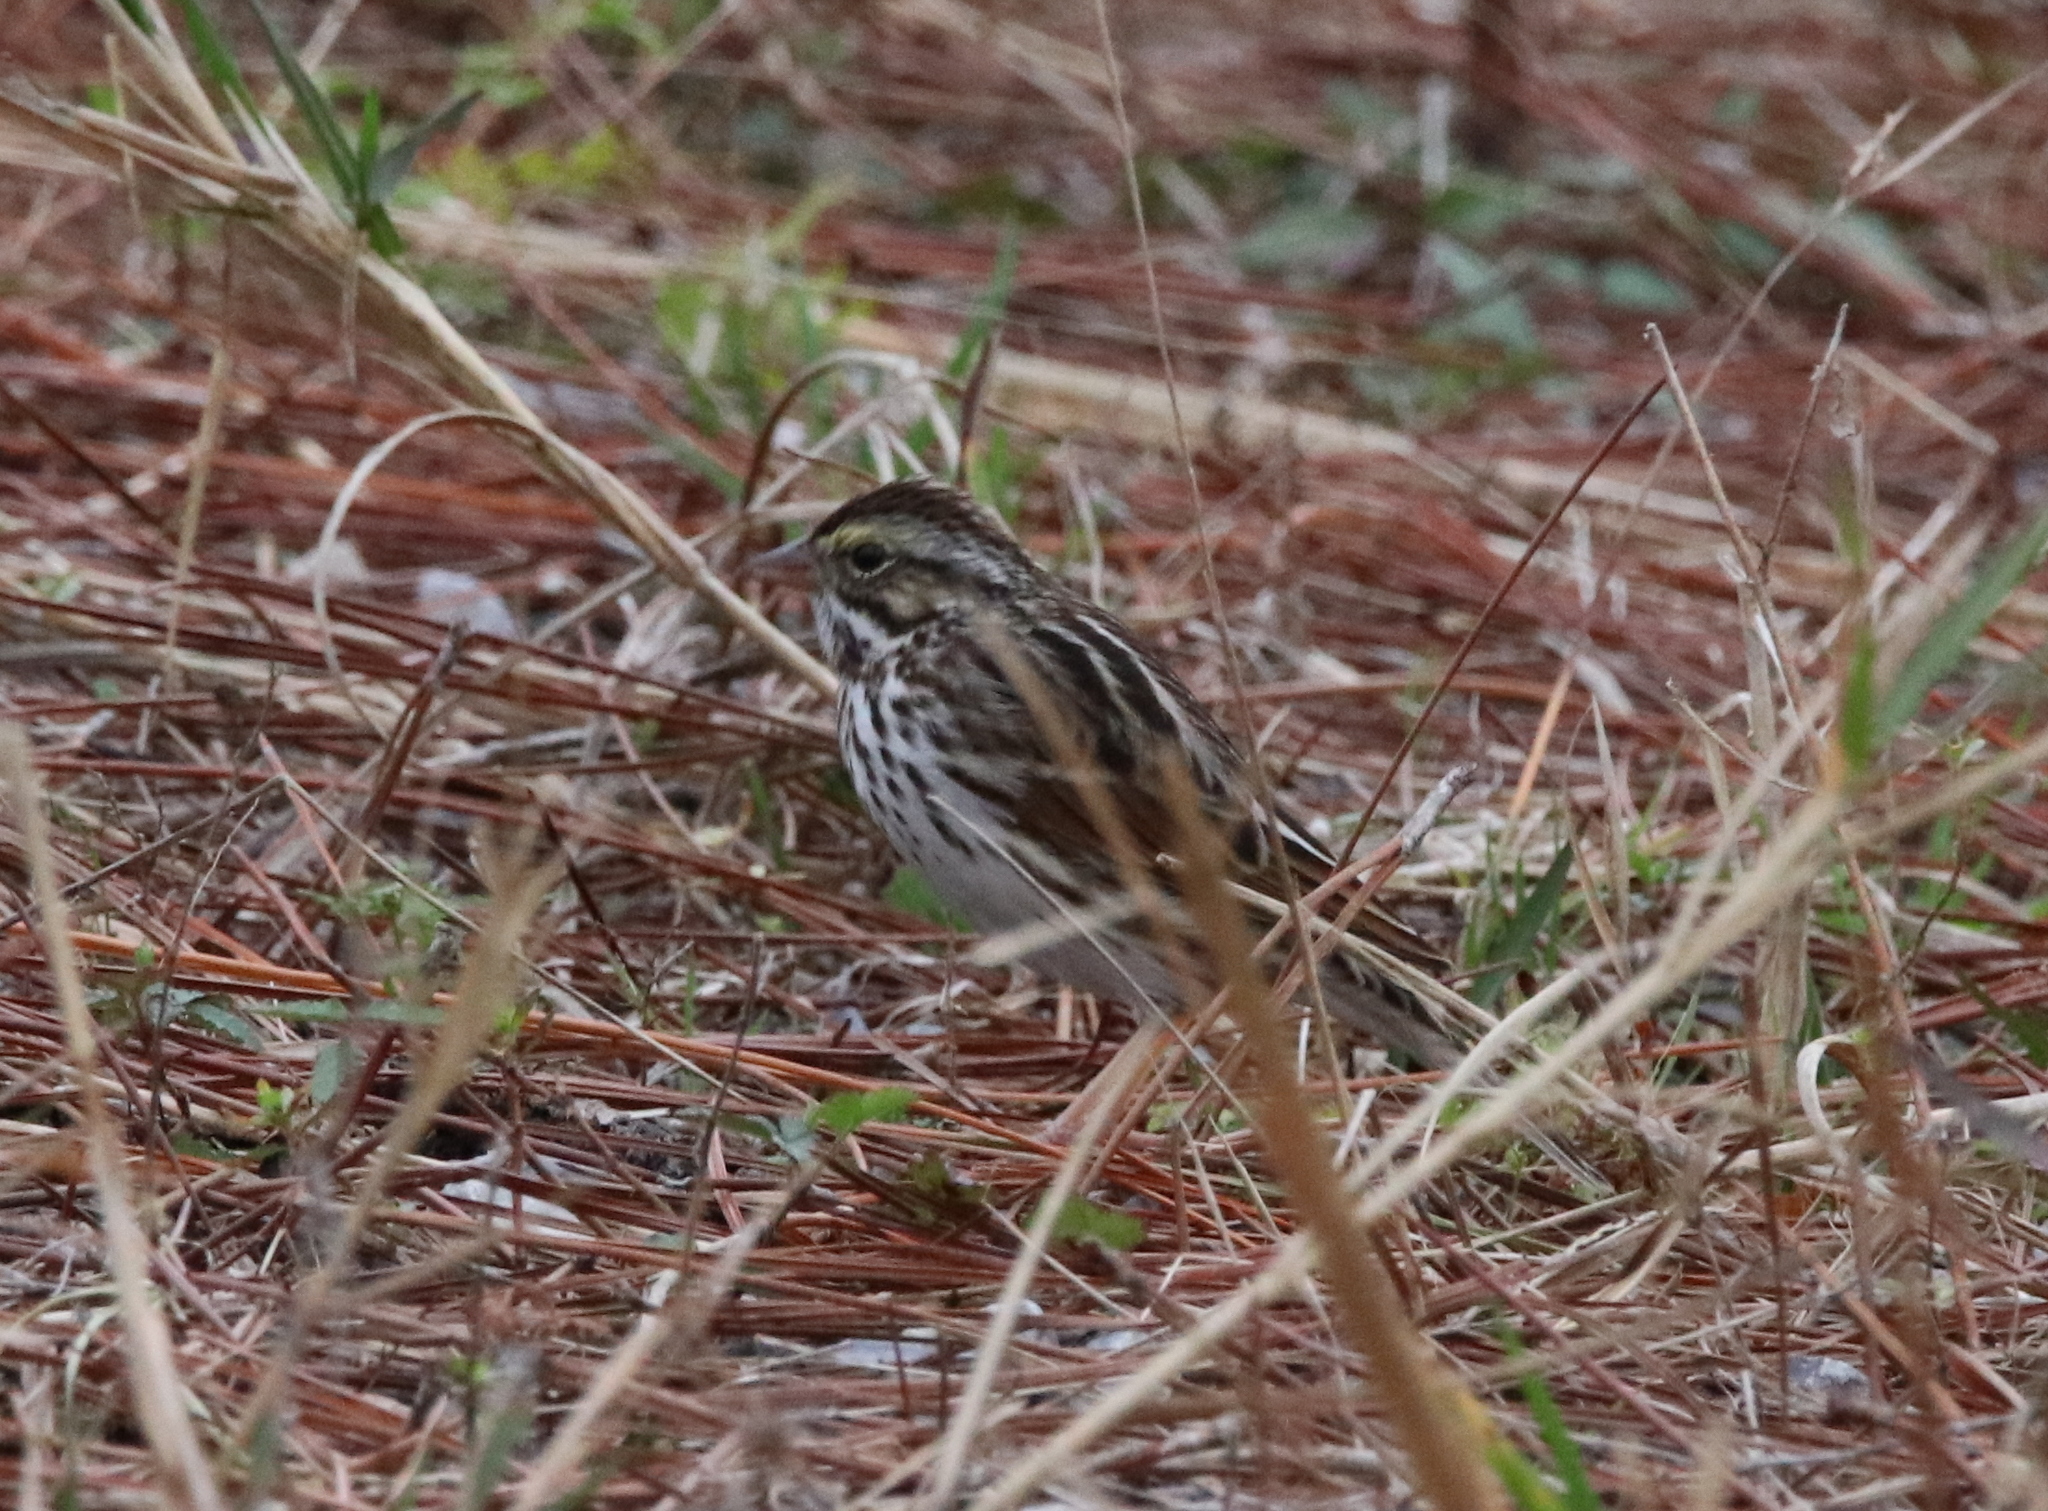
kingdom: Animalia
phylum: Chordata
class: Aves
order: Passeriformes
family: Passerellidae
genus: Passerculus
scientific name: Passerculus sandwichensis
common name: Savannah sparrow
